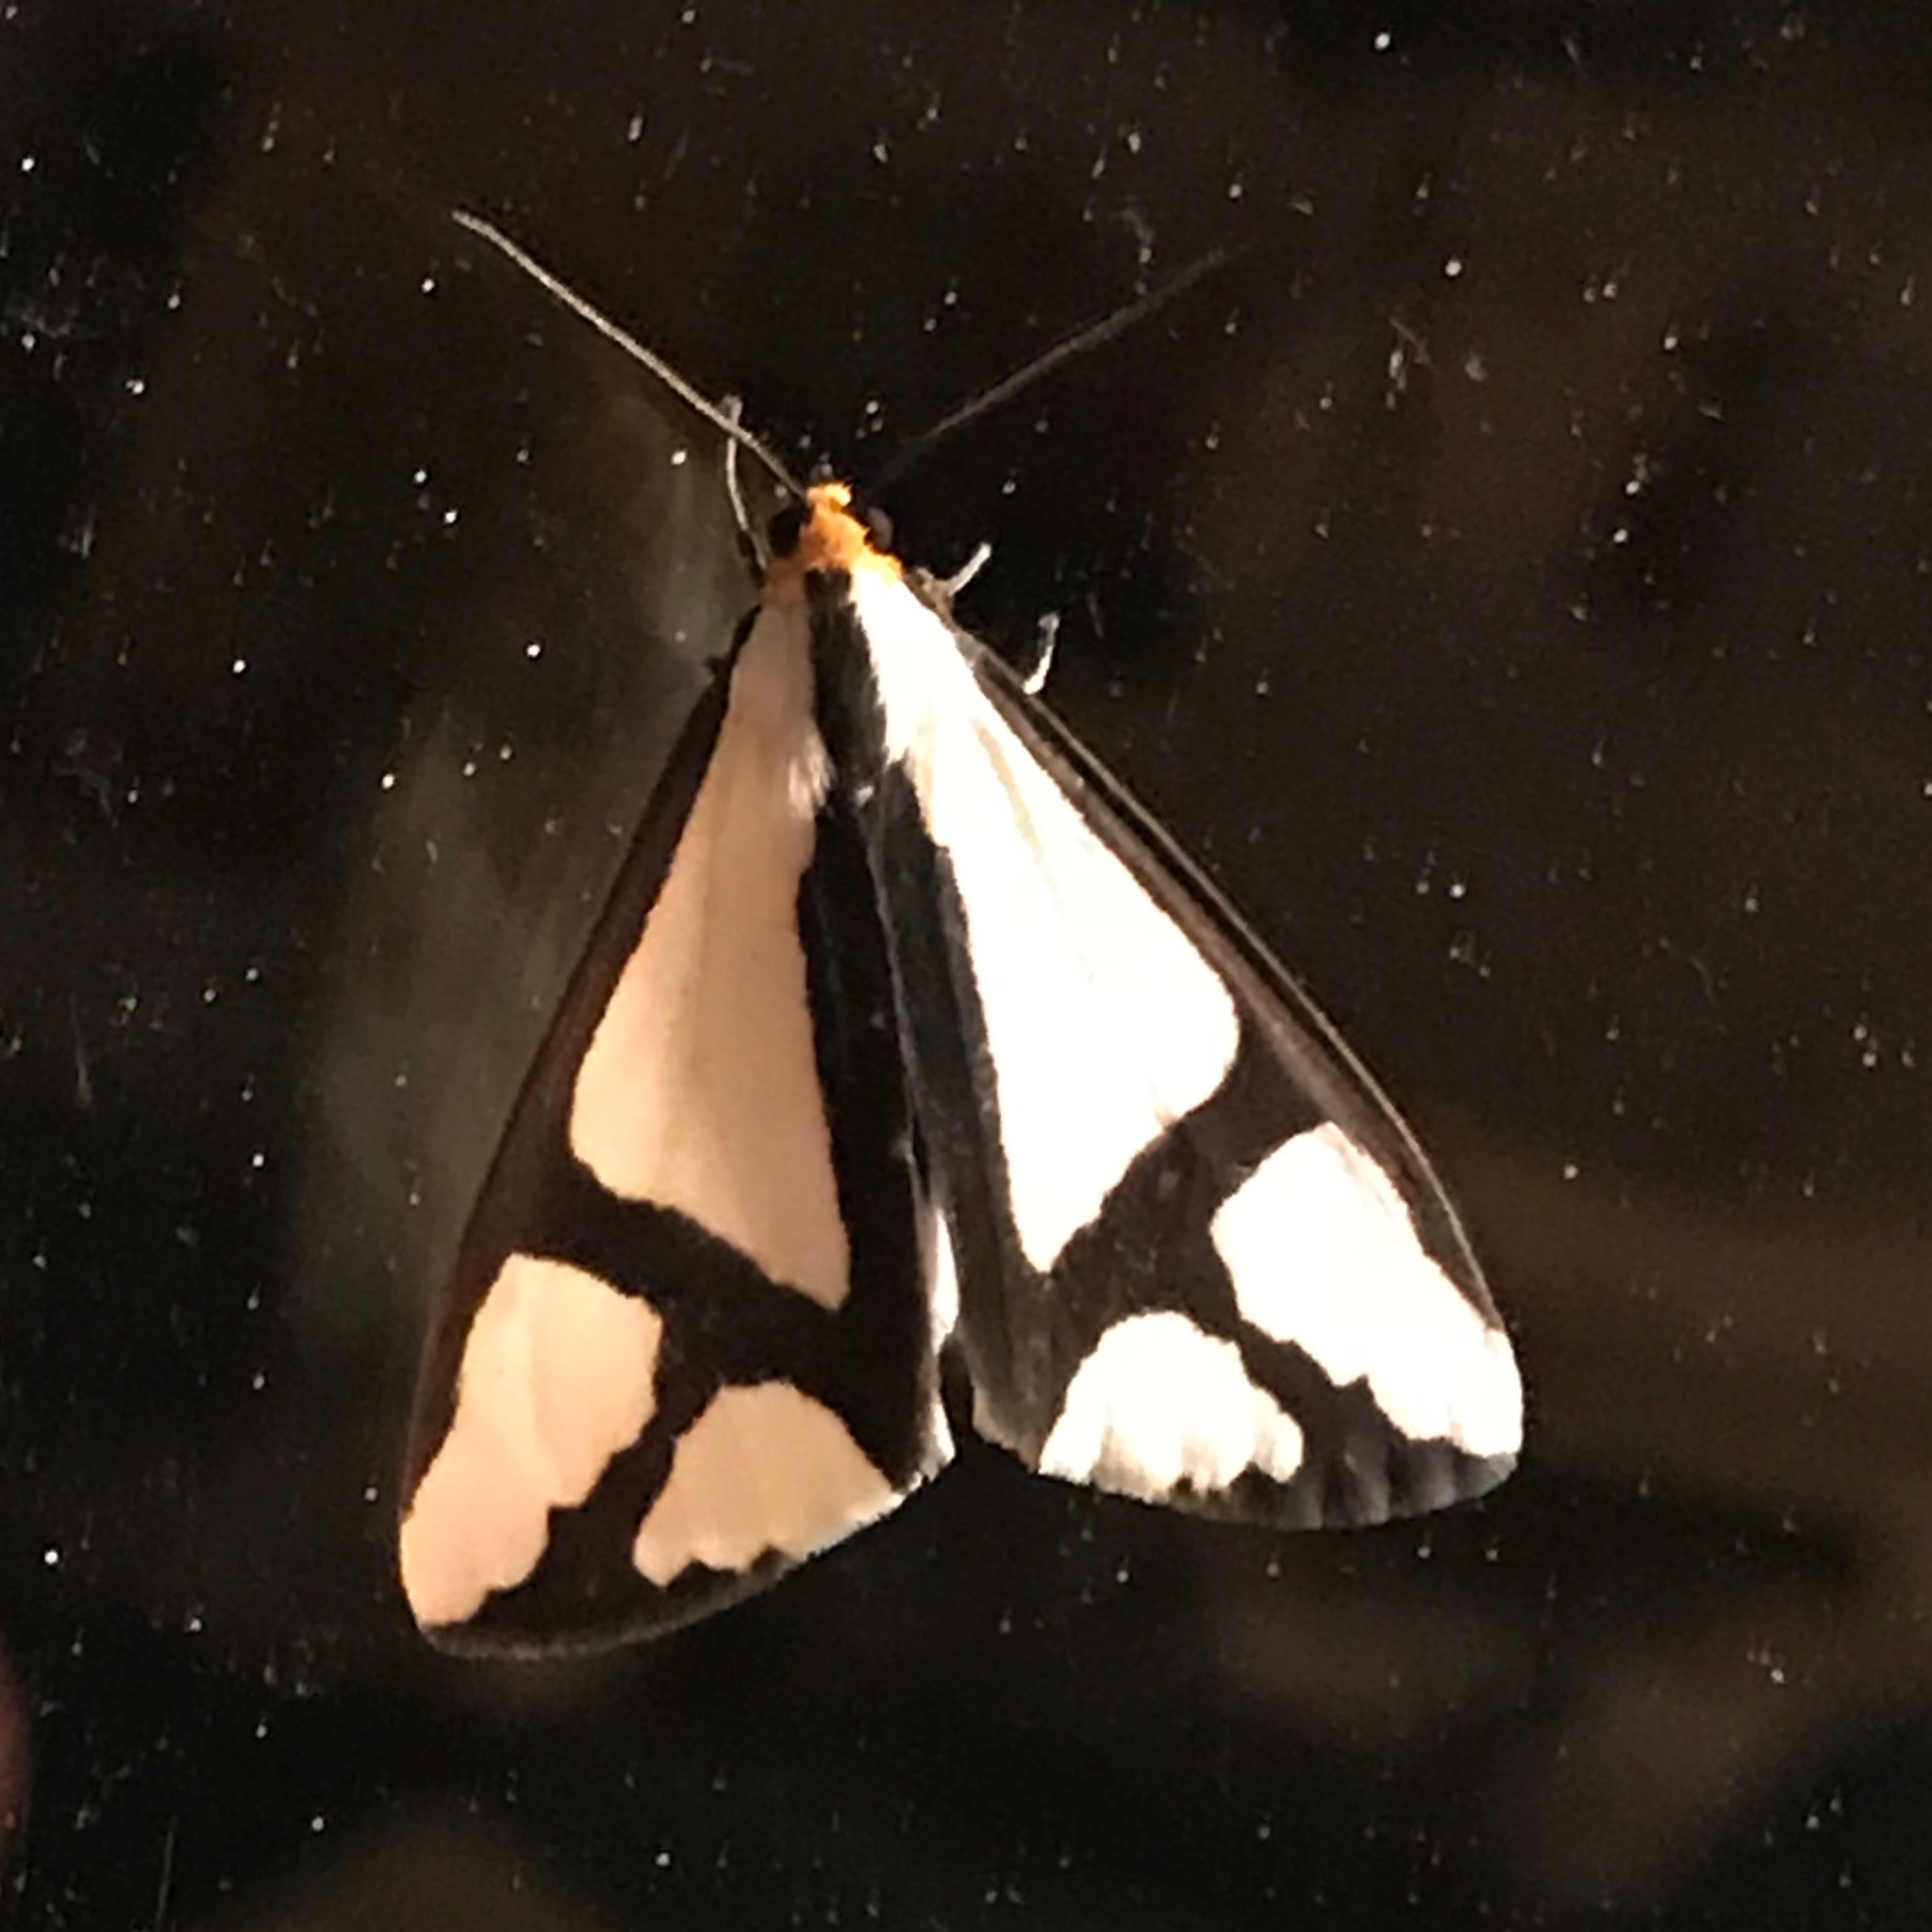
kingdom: Animalia
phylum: Arthropoda
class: Insecta
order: Lepidoptera
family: Erebidae
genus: Haploa
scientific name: Haploa contigua
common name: Neighbor moth
